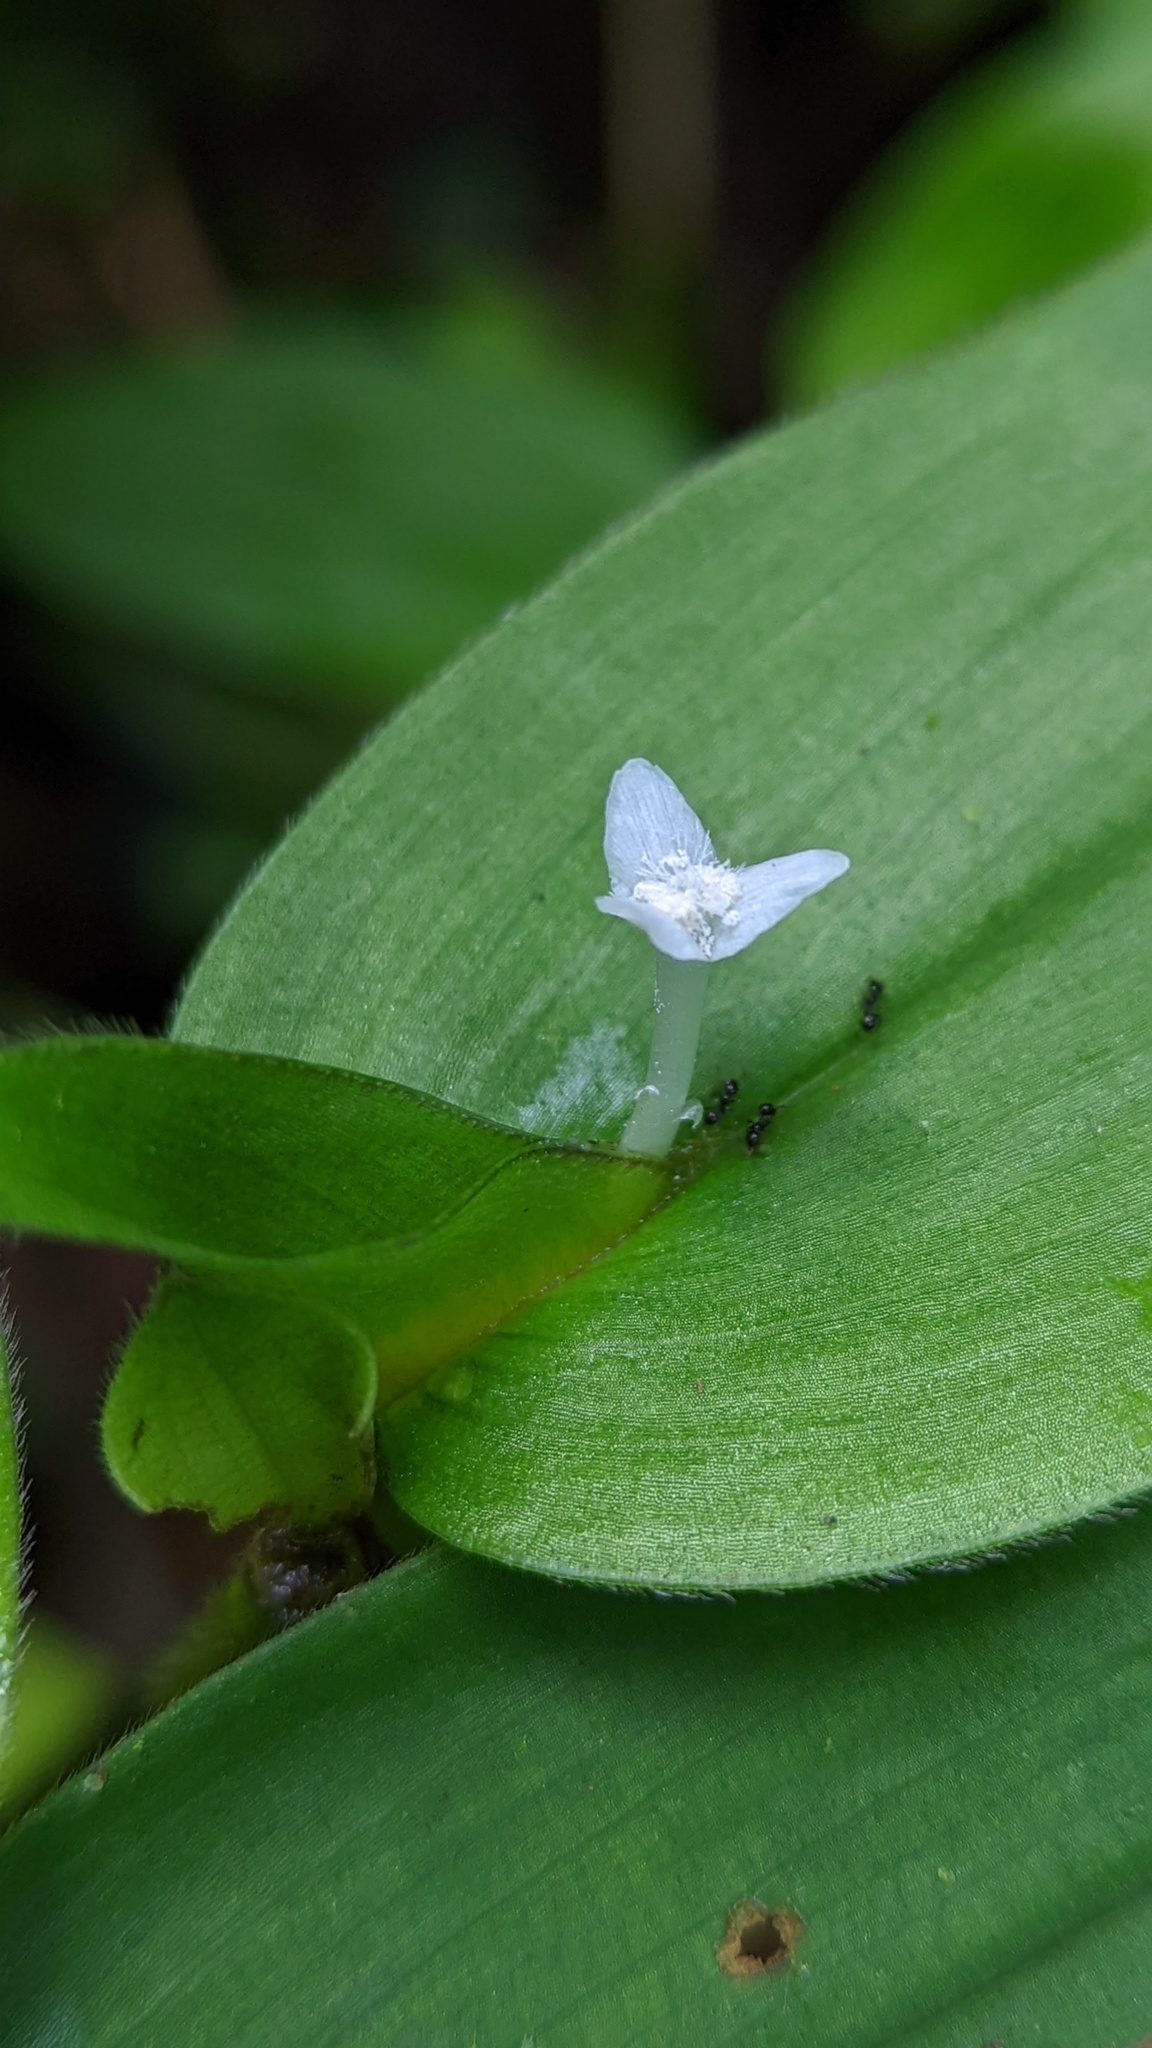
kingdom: Plantae
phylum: Tracheophyta
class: Liliopsida
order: Commelinales
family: Commelinaceae
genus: Tradescantia
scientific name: Tradescantia schippii
